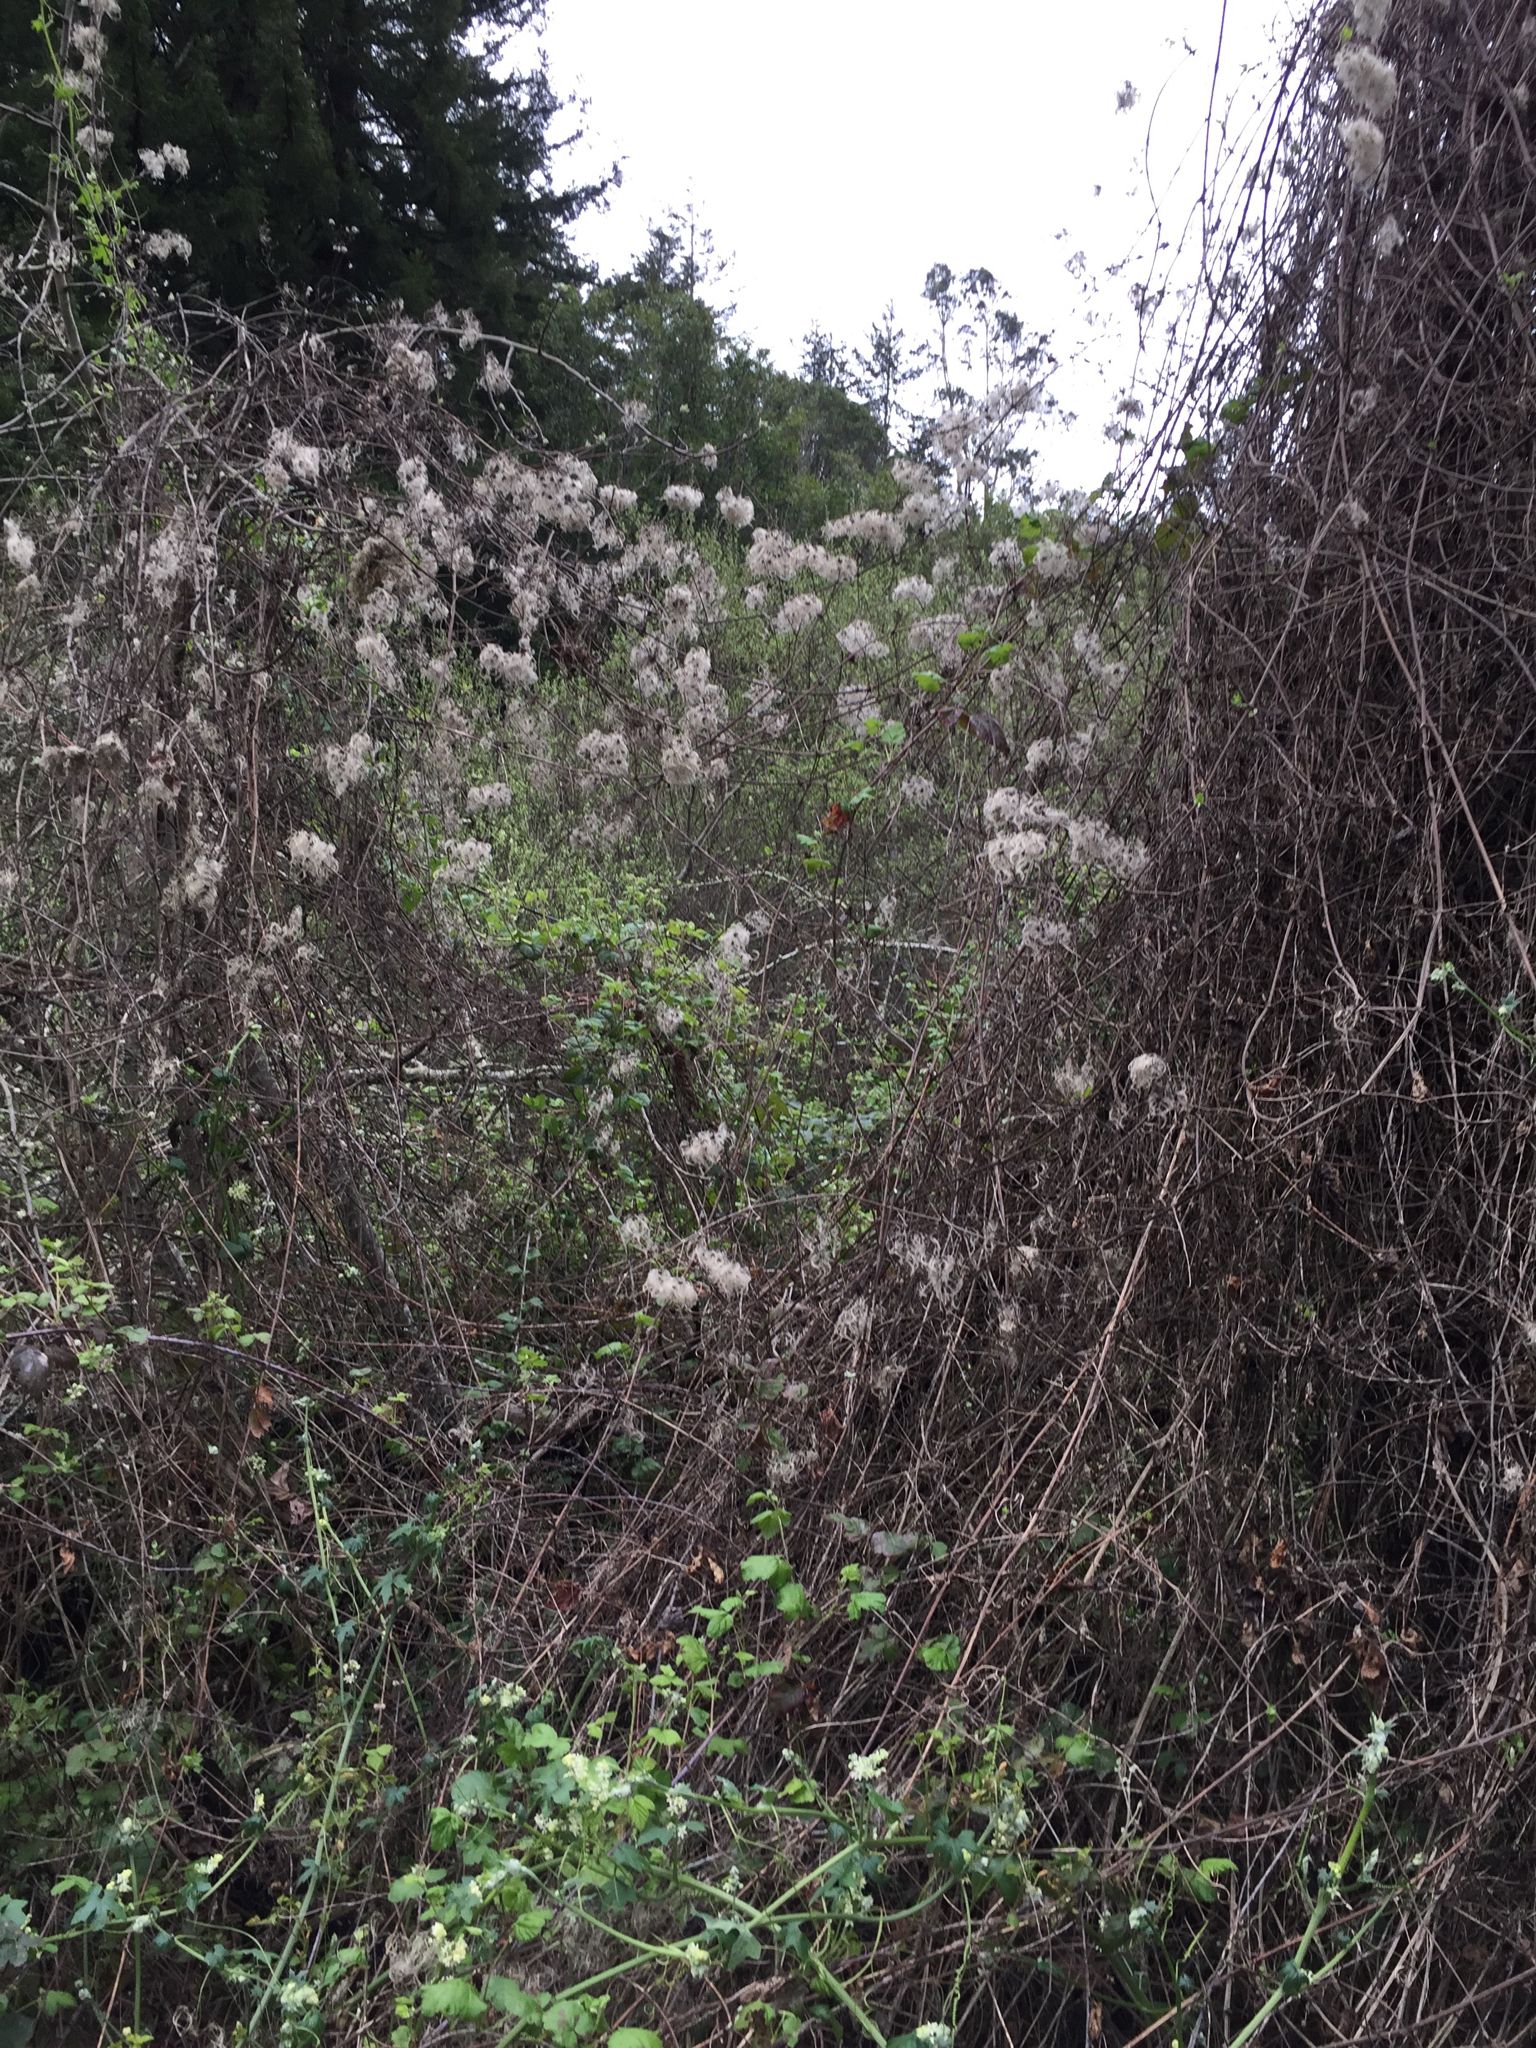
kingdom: Plantae
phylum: Tracheophyta
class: Magnoliopsida
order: Ranunculales
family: Ranunculaceae
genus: Clematis
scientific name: Clematis ligusticifolia
